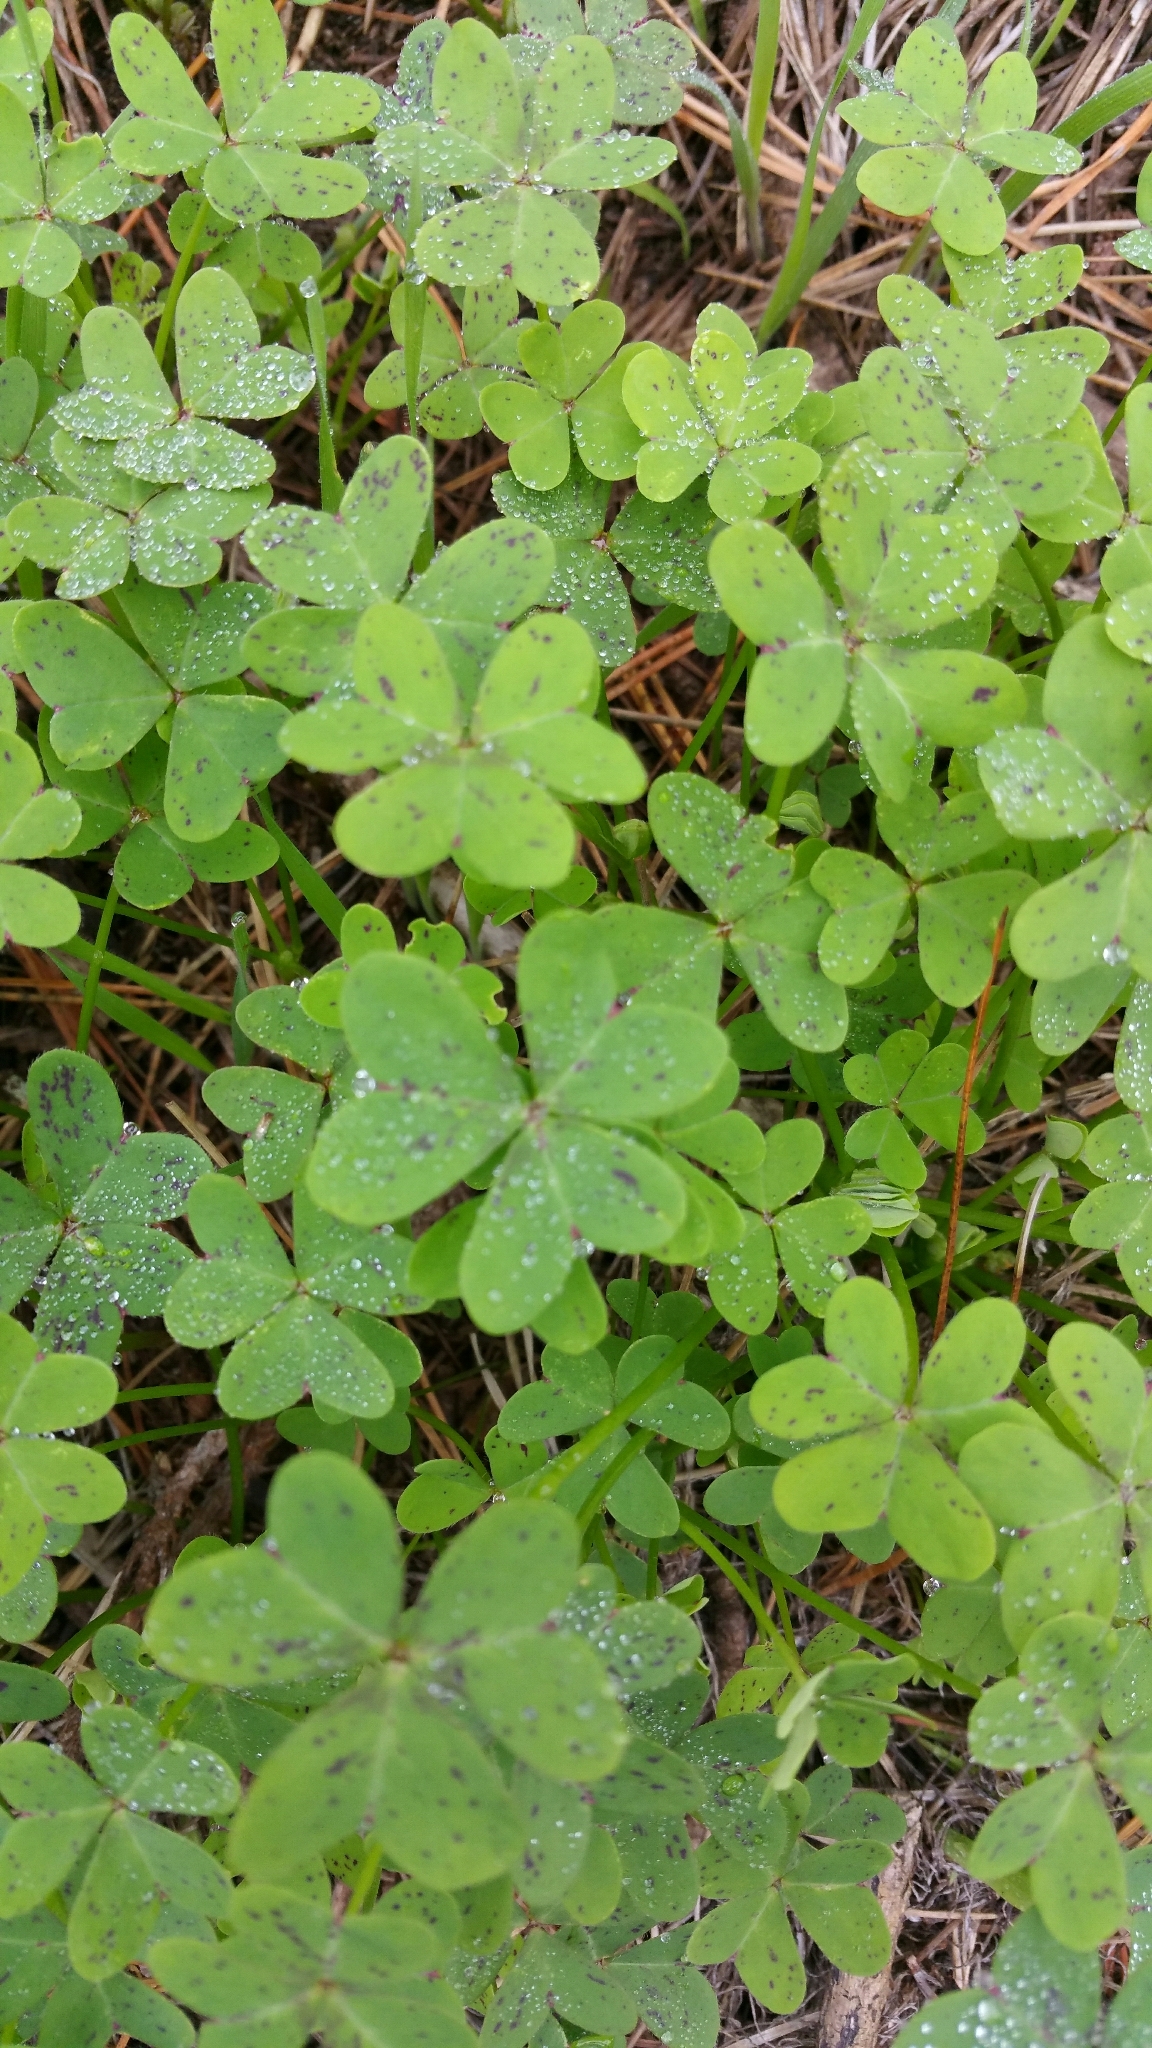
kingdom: Plantae
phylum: Tracheophyta
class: Magnoliopsida
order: Oxalidales
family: Oxalidaceae
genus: Oxalis
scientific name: Oxalis pes-caprae
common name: Bermuda-buttercup
